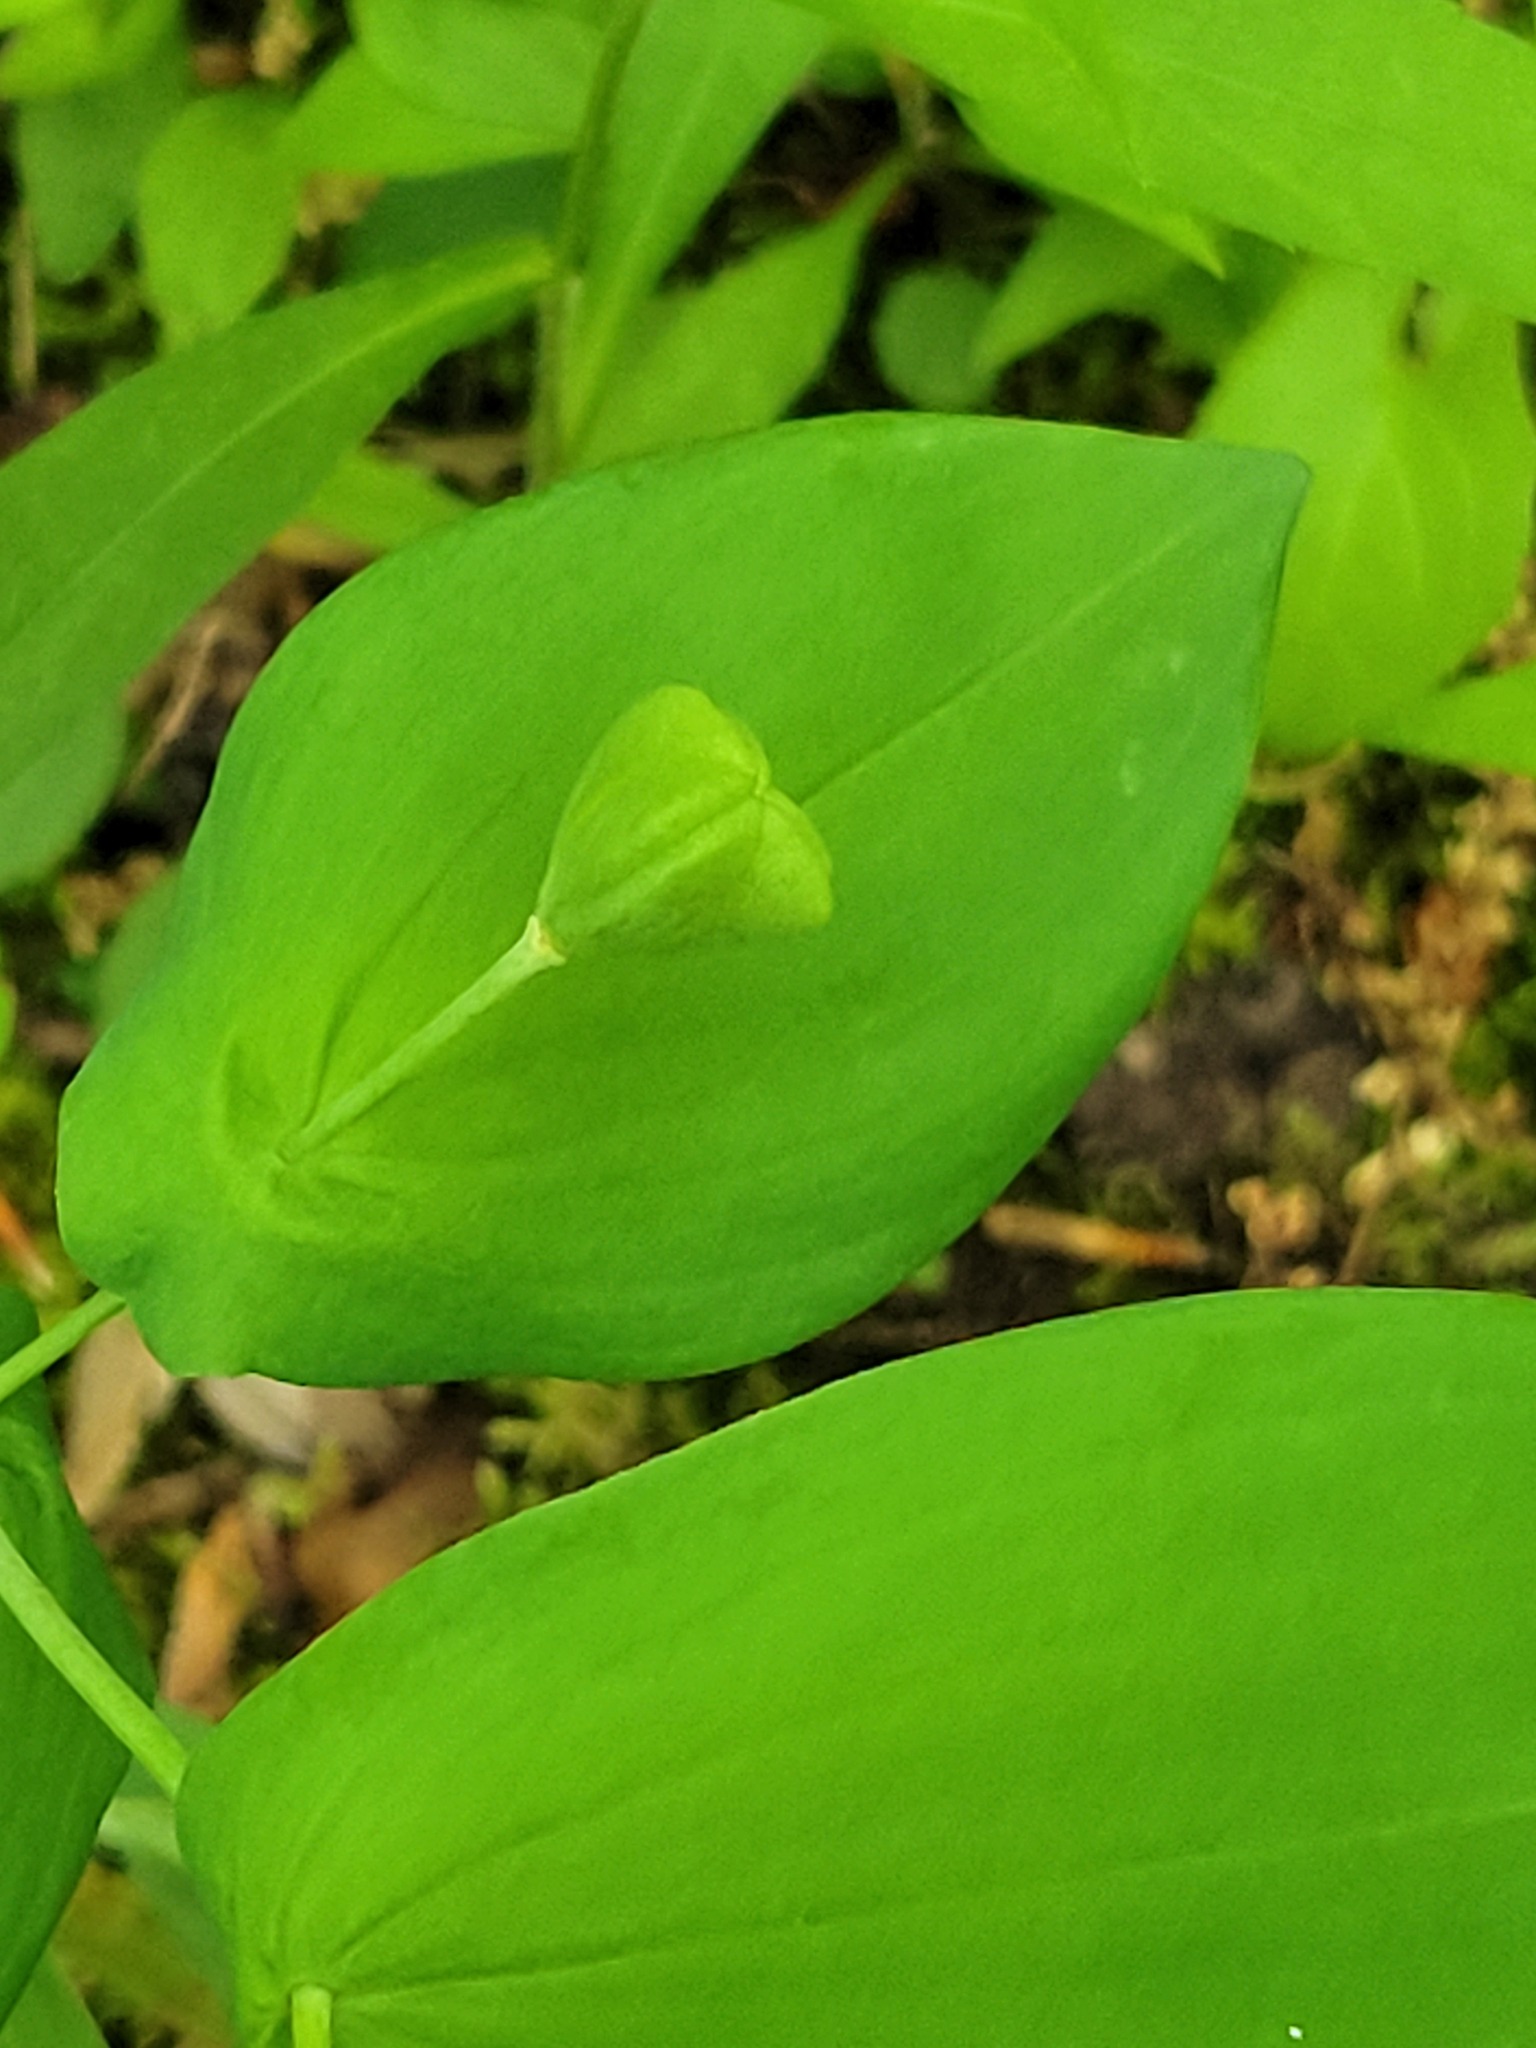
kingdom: Plantae
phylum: Tracheophyta
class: Liliopsida
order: Liliales
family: Colchicaceae
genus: Uvularia
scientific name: Uvularia grandiflora
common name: Bellwort
